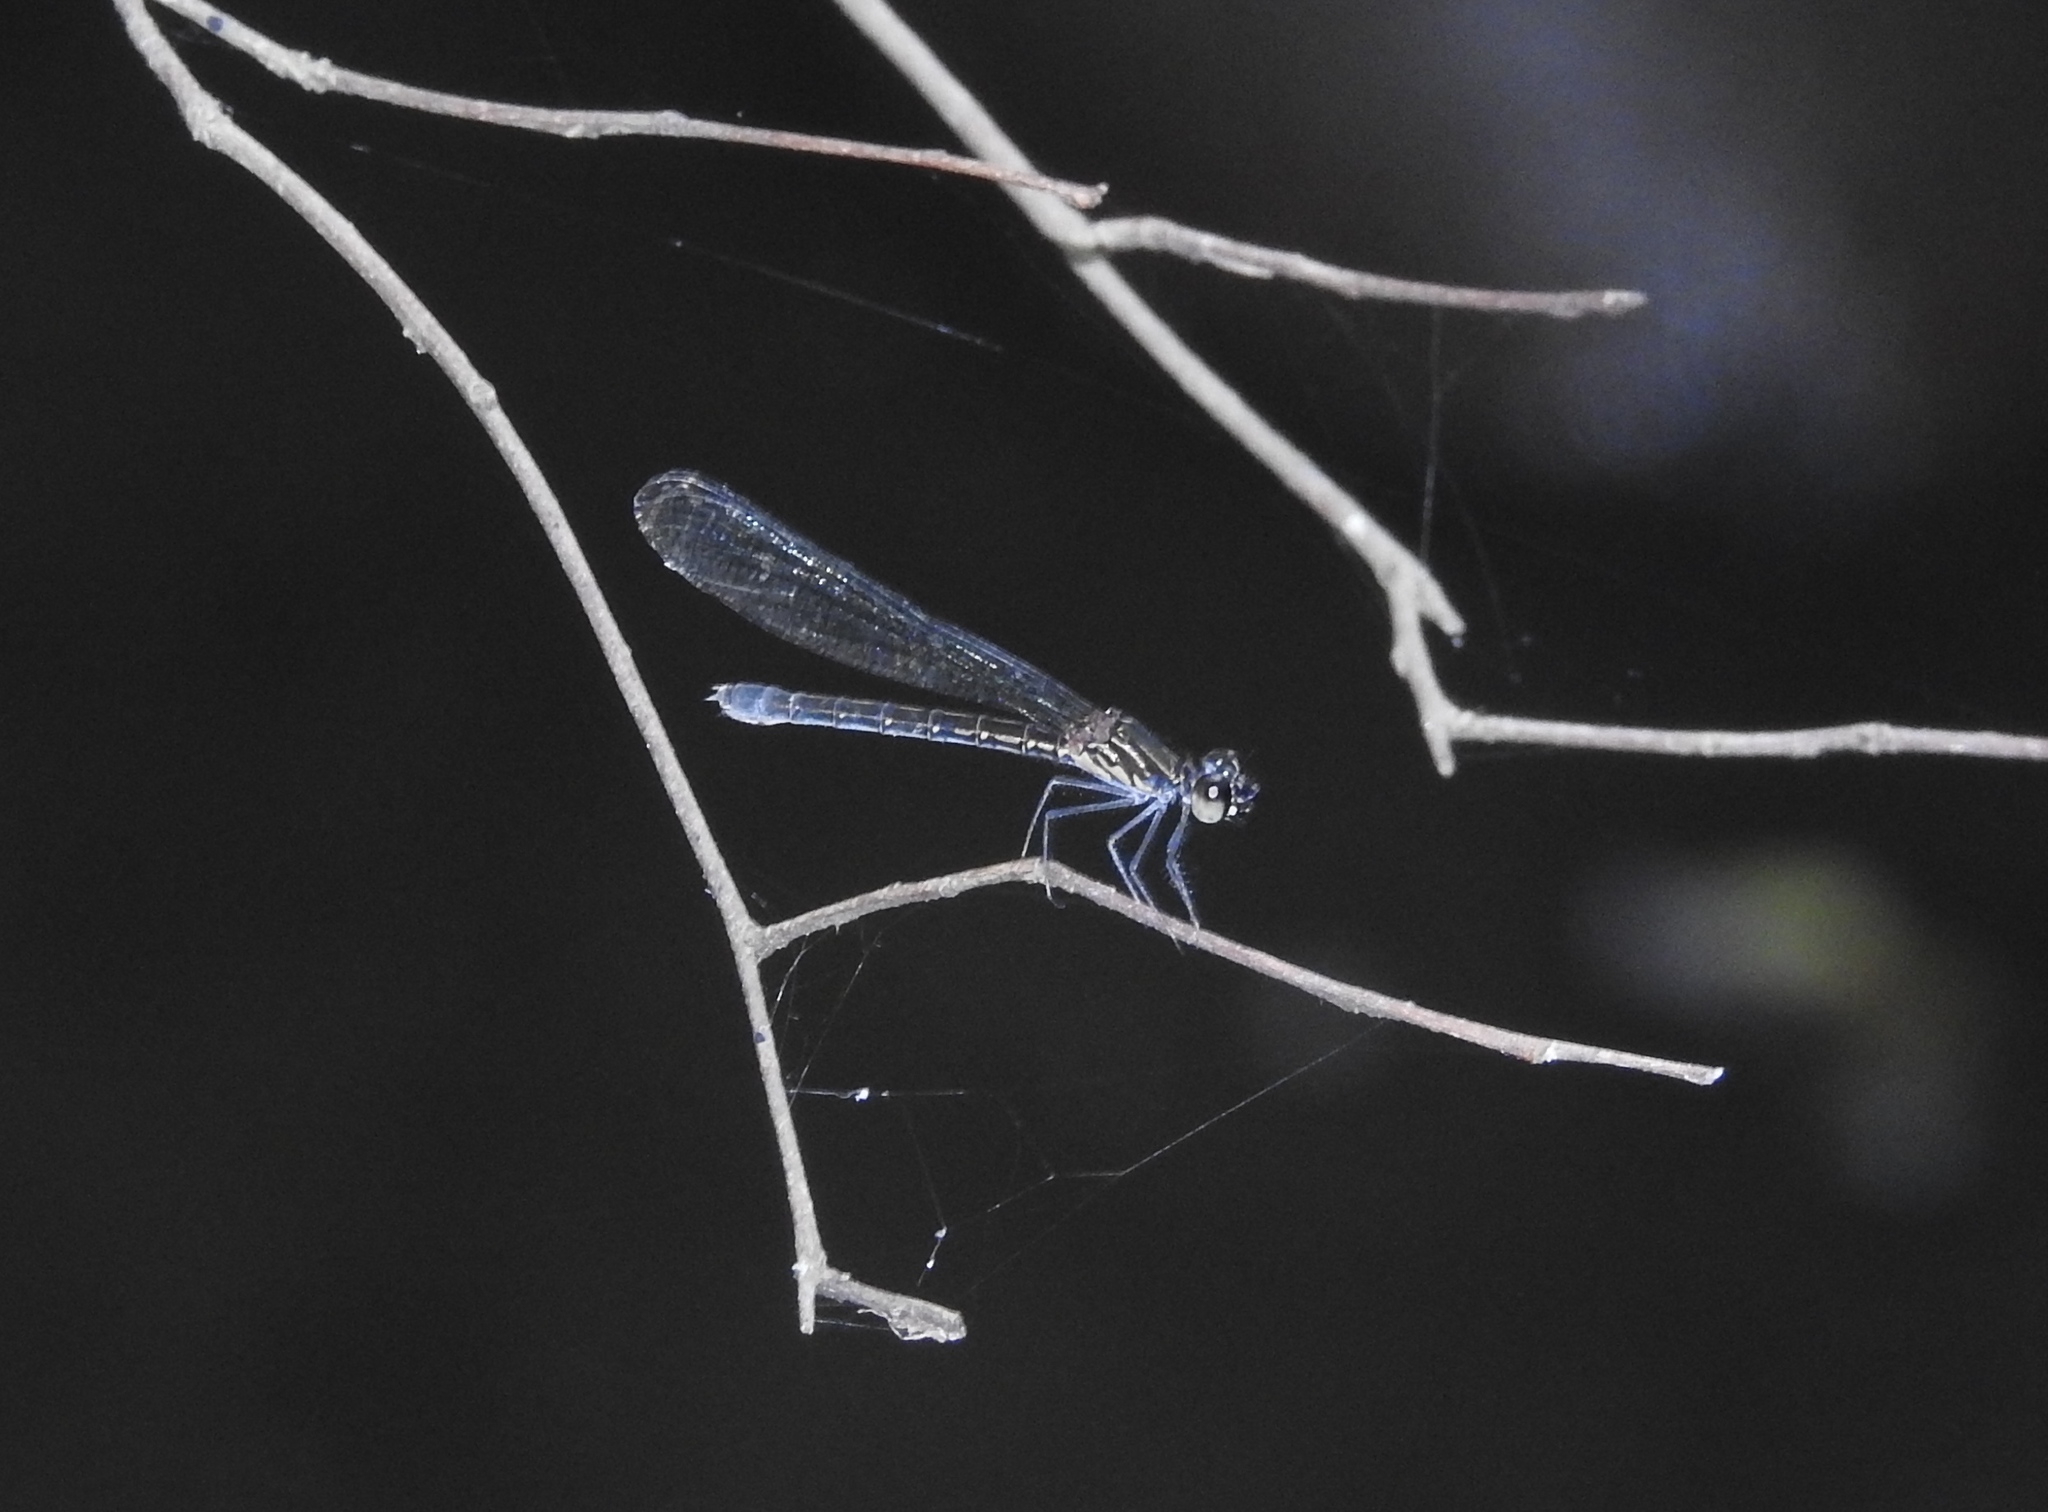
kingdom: Animalia
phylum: Arthropoda
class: Insecta
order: Odonata
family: Chlorocyphidae
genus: Heliocypha
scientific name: Heliocypha bisignata
